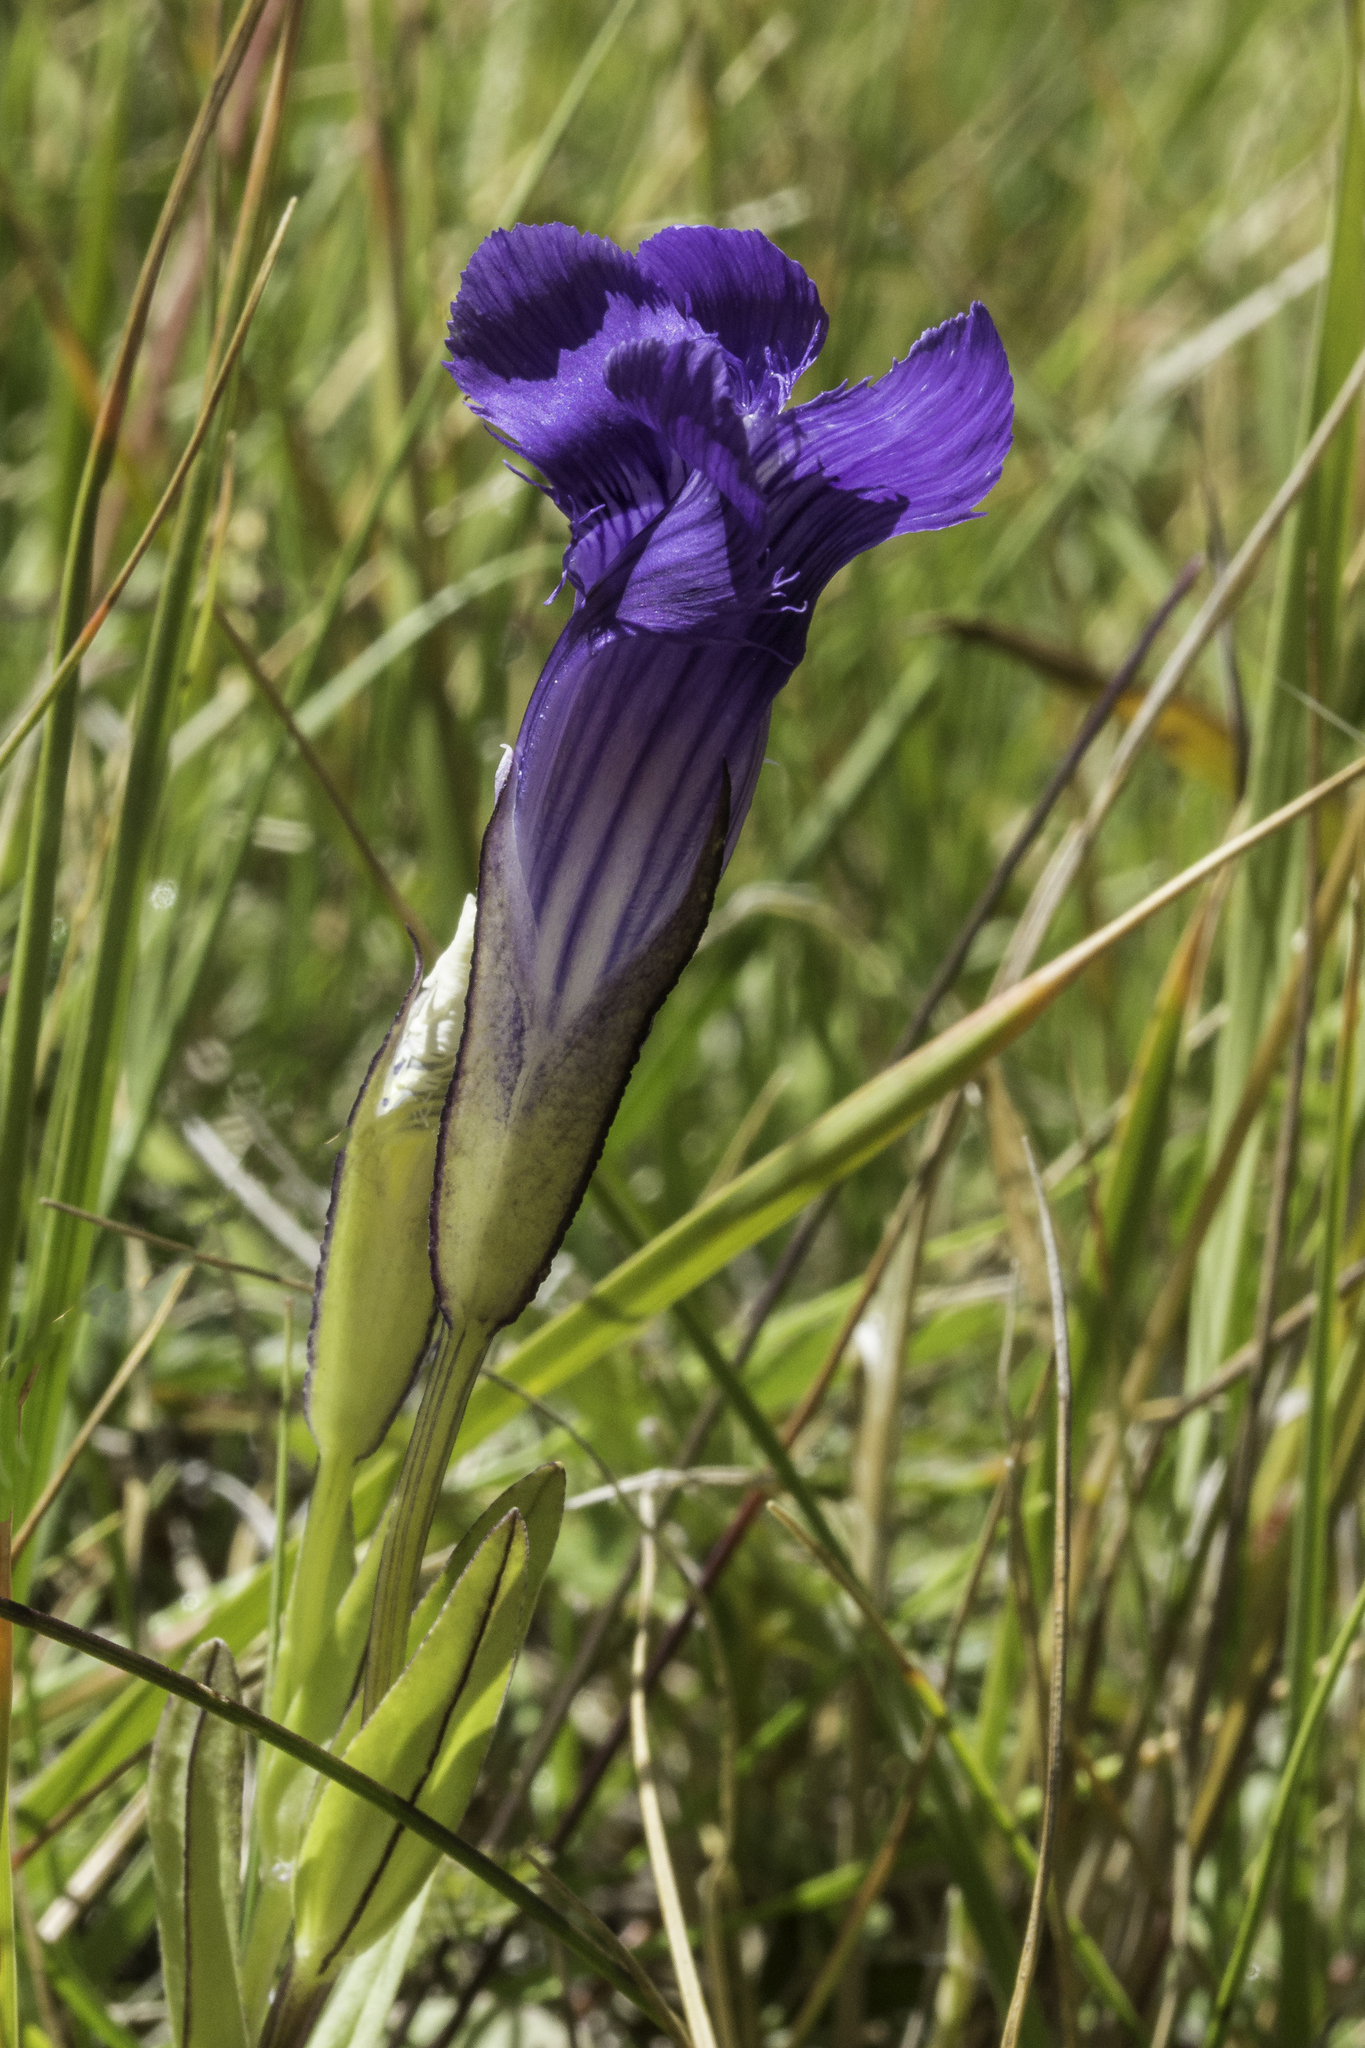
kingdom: Plantae
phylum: Tracheophyta
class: Magnoliopsida
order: Gentianales
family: Gentianaceae
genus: Gentianopsis
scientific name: Gentianopsis thermalis
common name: Rocky mountain fringed-gentian
